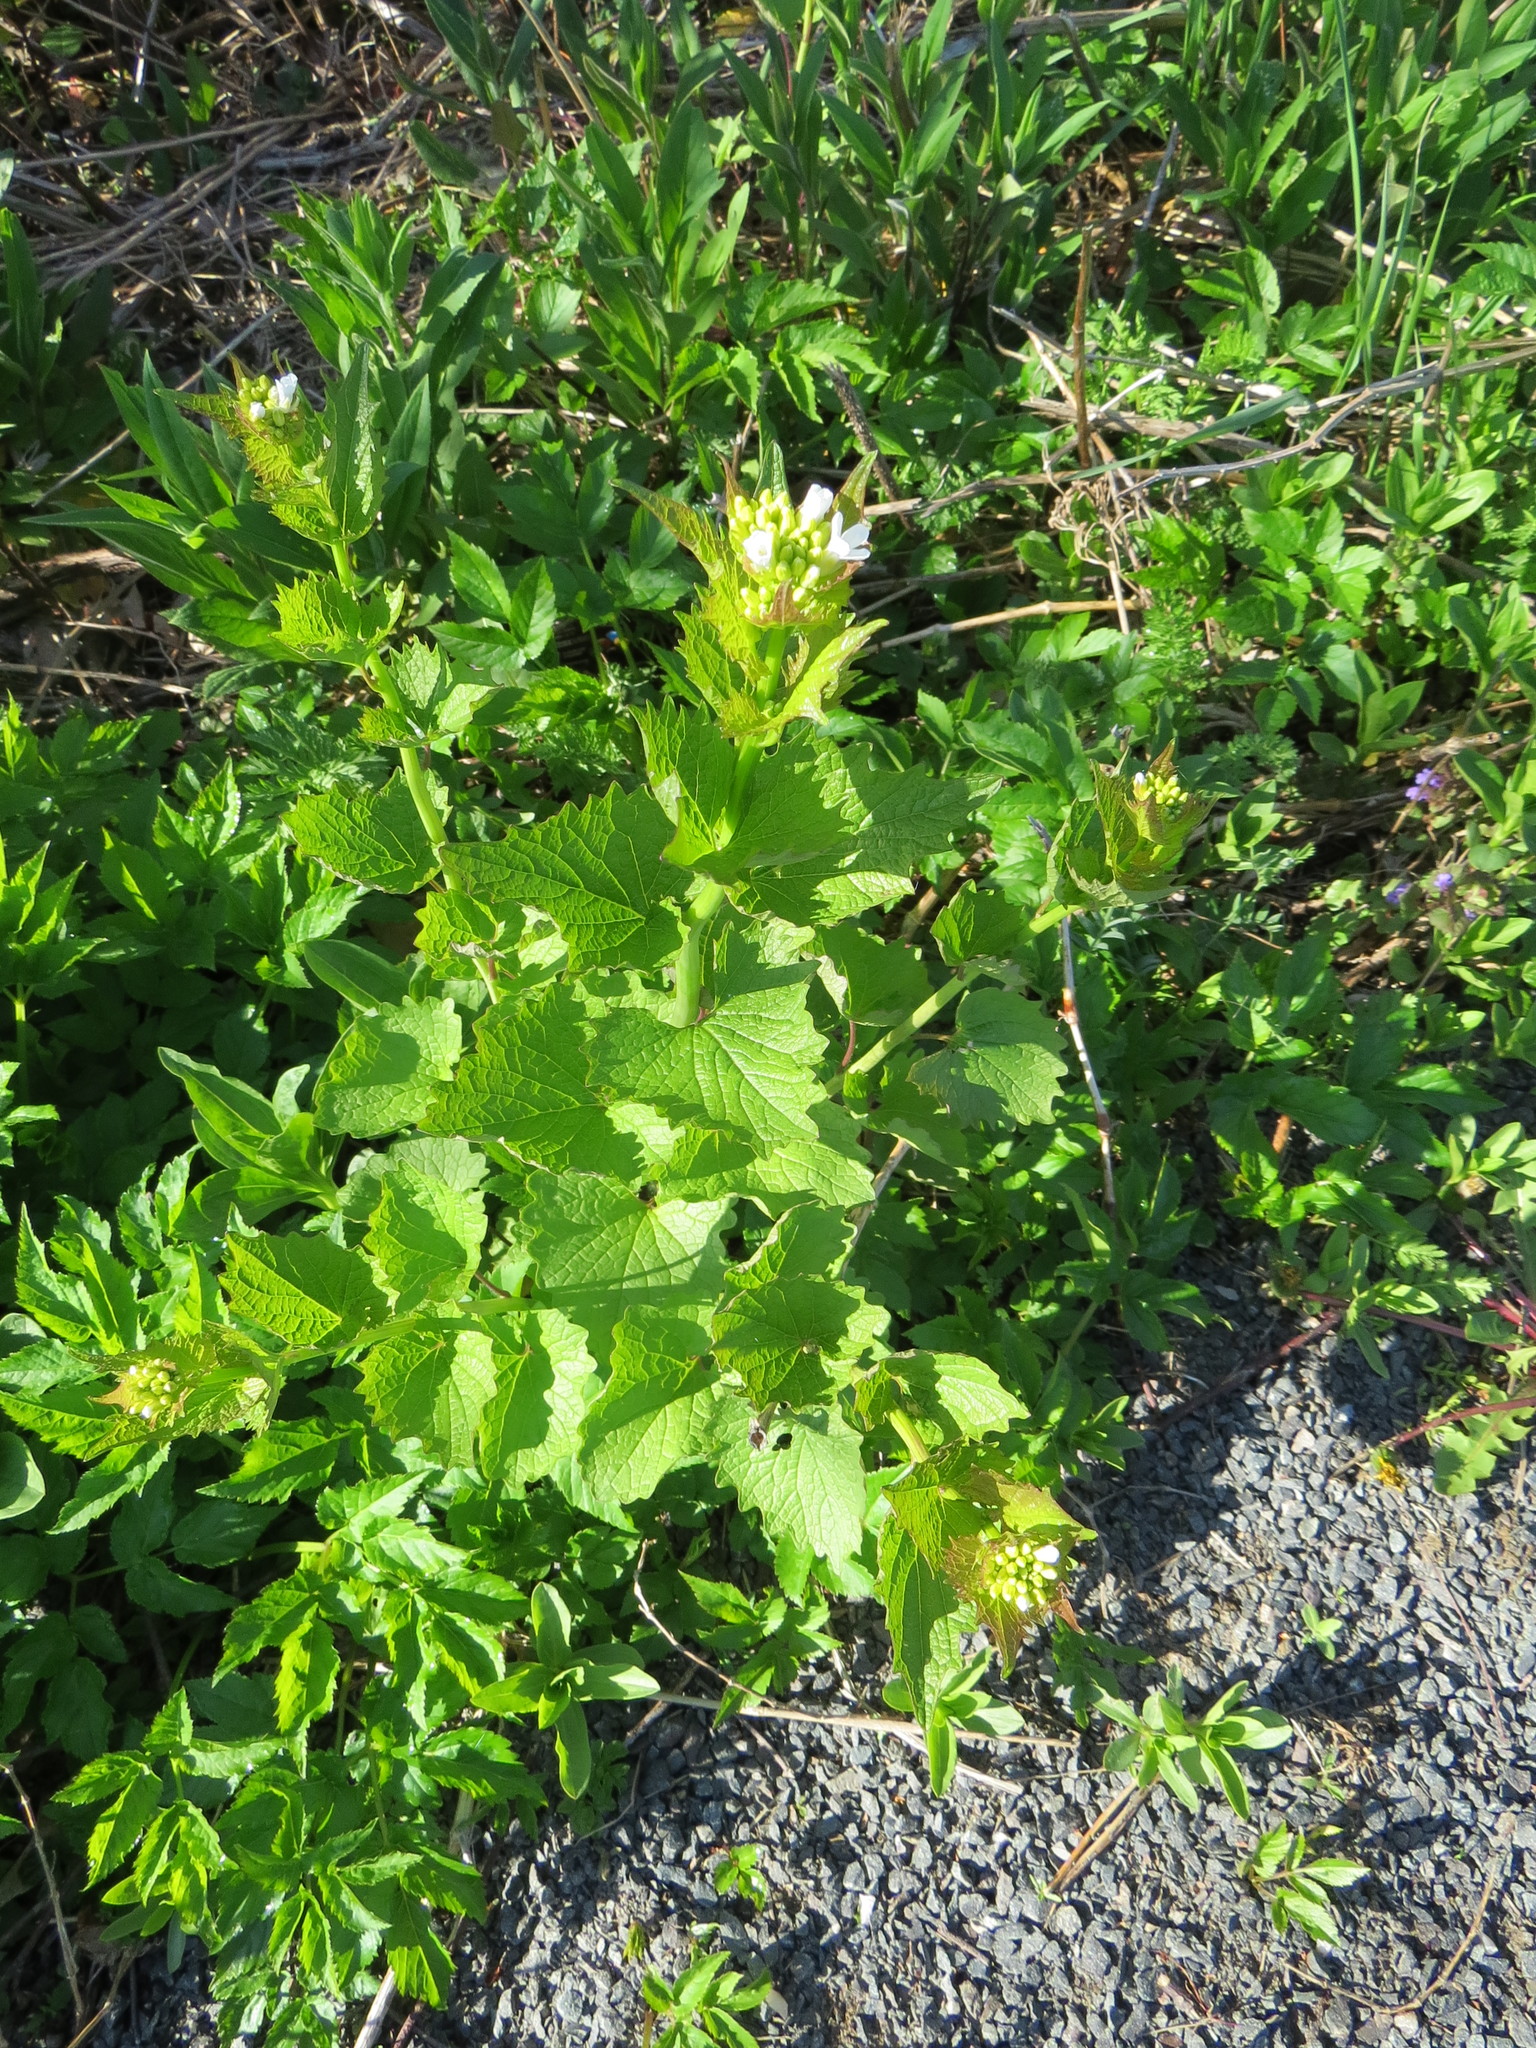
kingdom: Plantae
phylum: Tracheophyta
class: Magnoliopsida
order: Brassicales
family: Brassicaceae
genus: Alliaria
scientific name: Alliaria petiolata
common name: Garlic mustard
